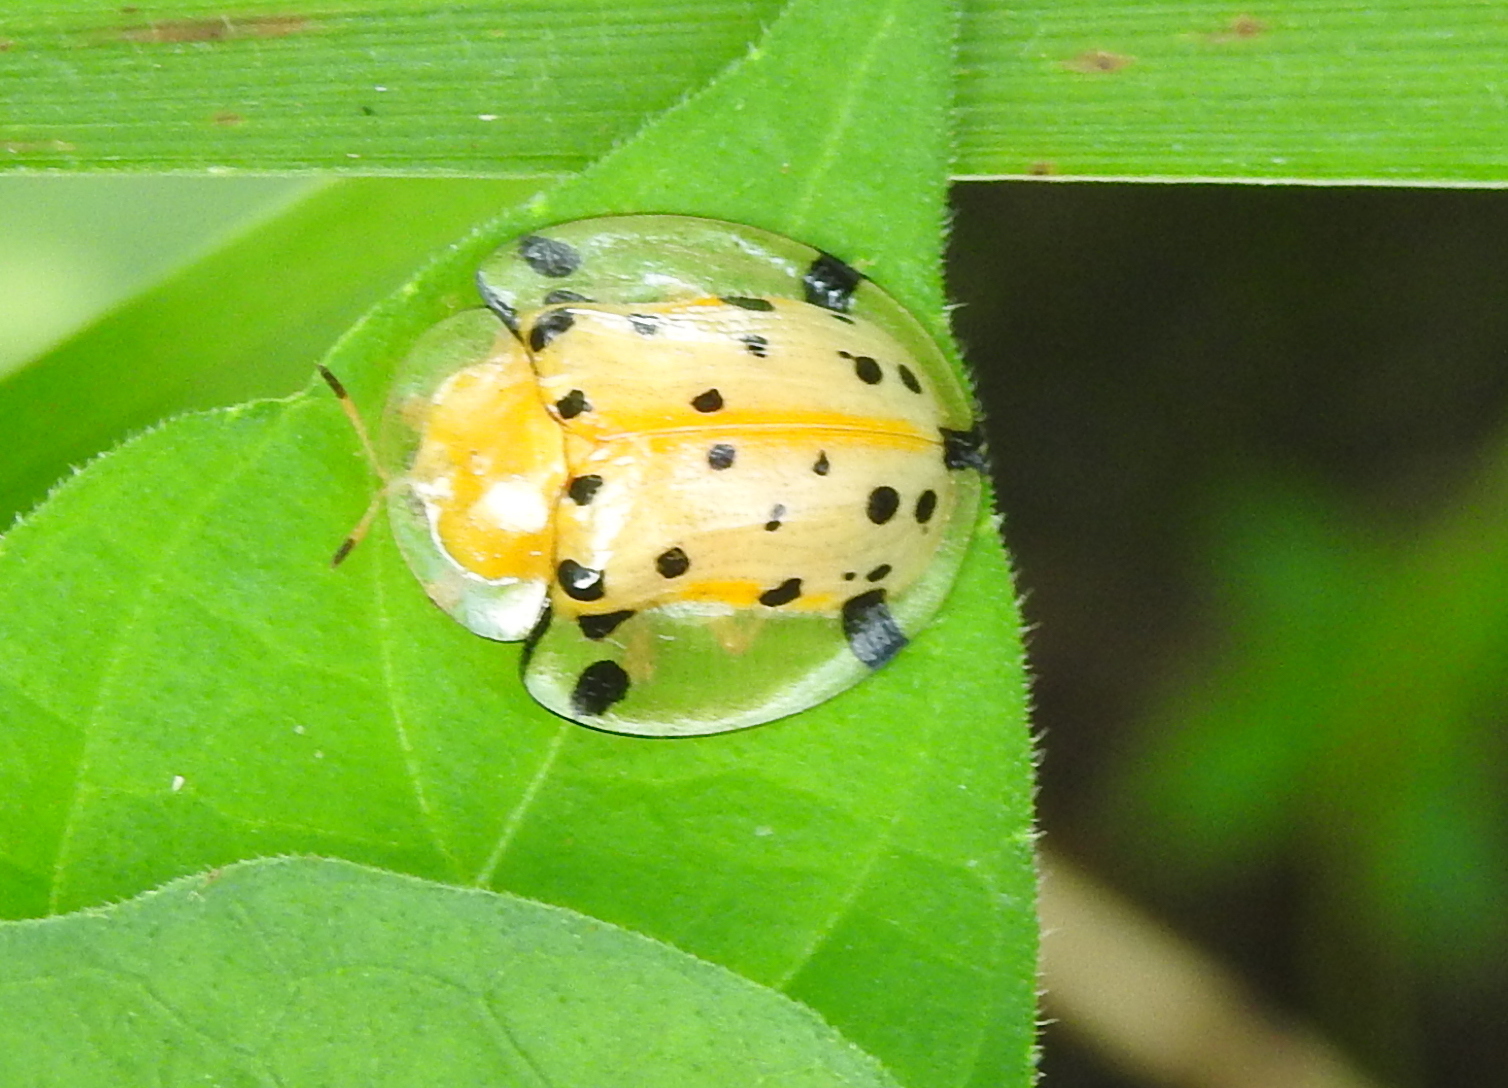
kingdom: Animalia
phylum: Arthropoda
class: Insecta
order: Coleoptera
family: Chrysomelidae
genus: Aspidimorpha
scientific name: Aspidimorpha miliaris
